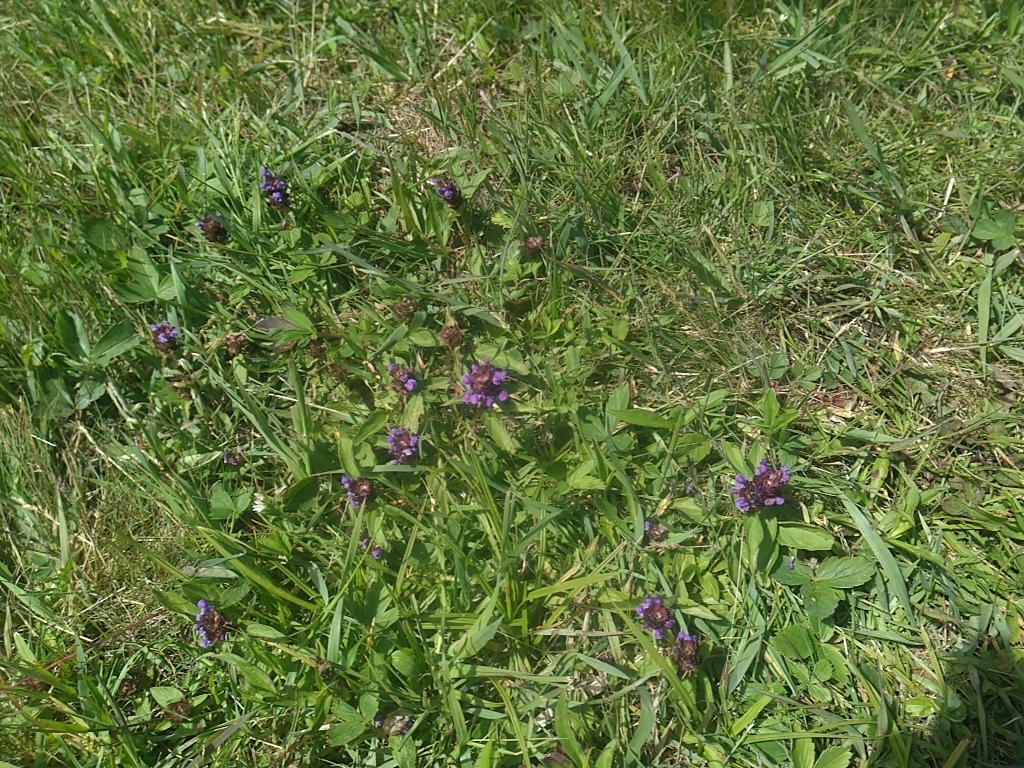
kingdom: Plantae
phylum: Tracheophyta
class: Magnoliopsida
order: Lamiales
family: Lamiaceae
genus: Prunella
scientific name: Prunella vulgaris
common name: Heal-all
